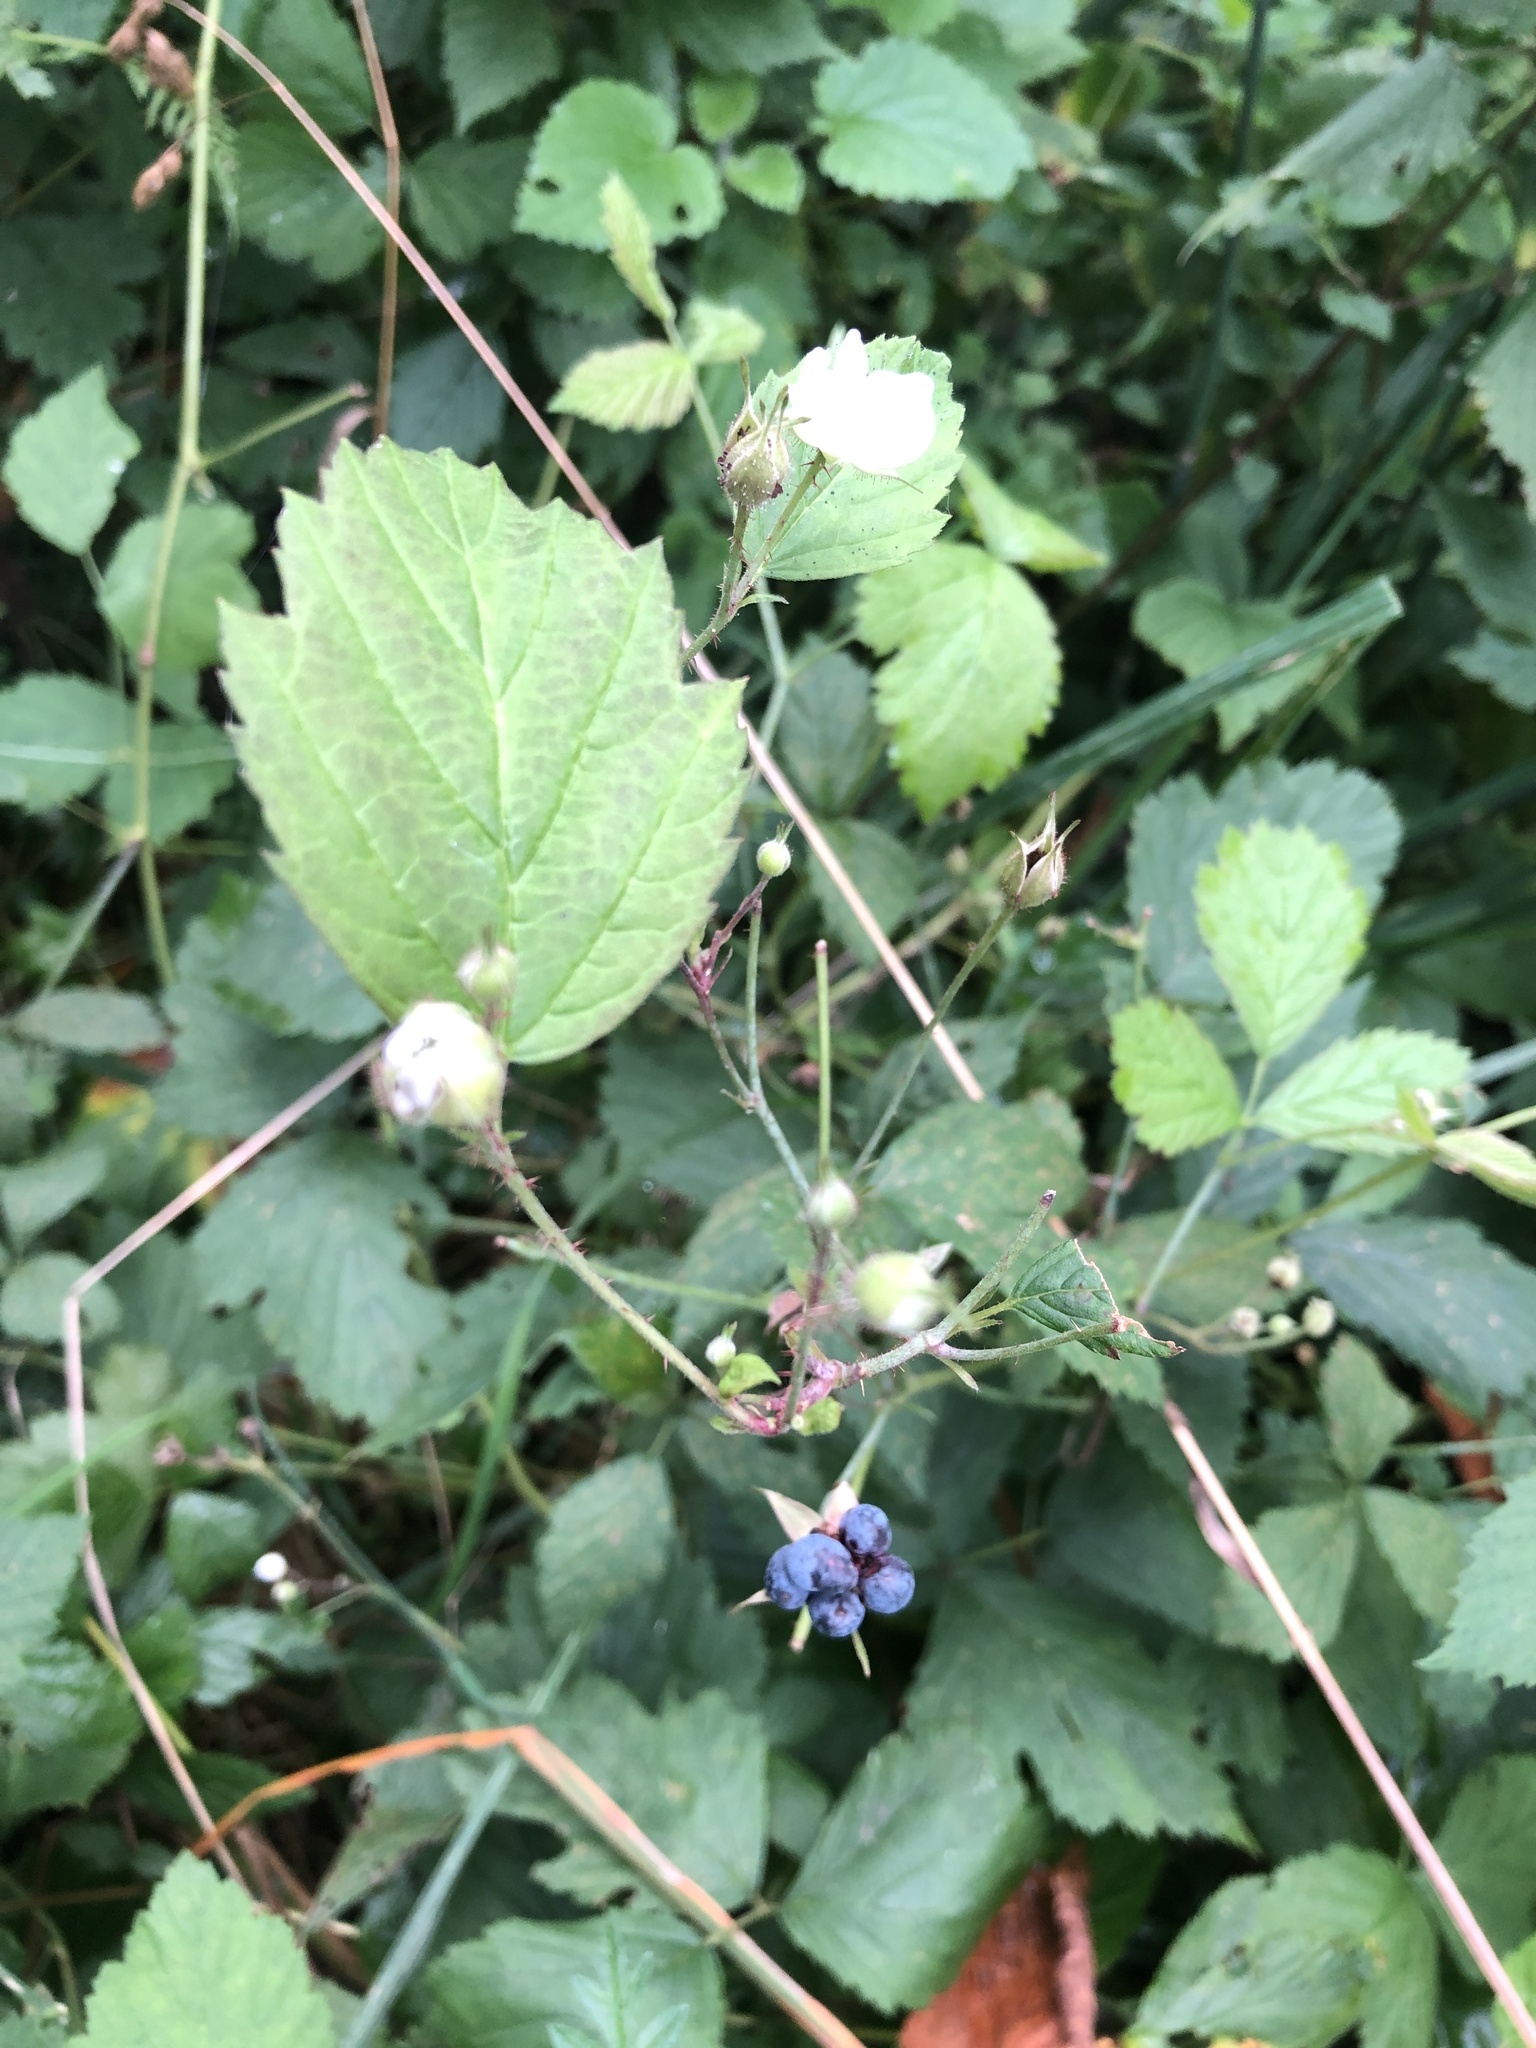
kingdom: Plantae
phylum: Tracheophyta
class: Magnoliopsida
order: Rosales
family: Rosaceae
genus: Rubus
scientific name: Rubus caesius
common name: Dewberry
